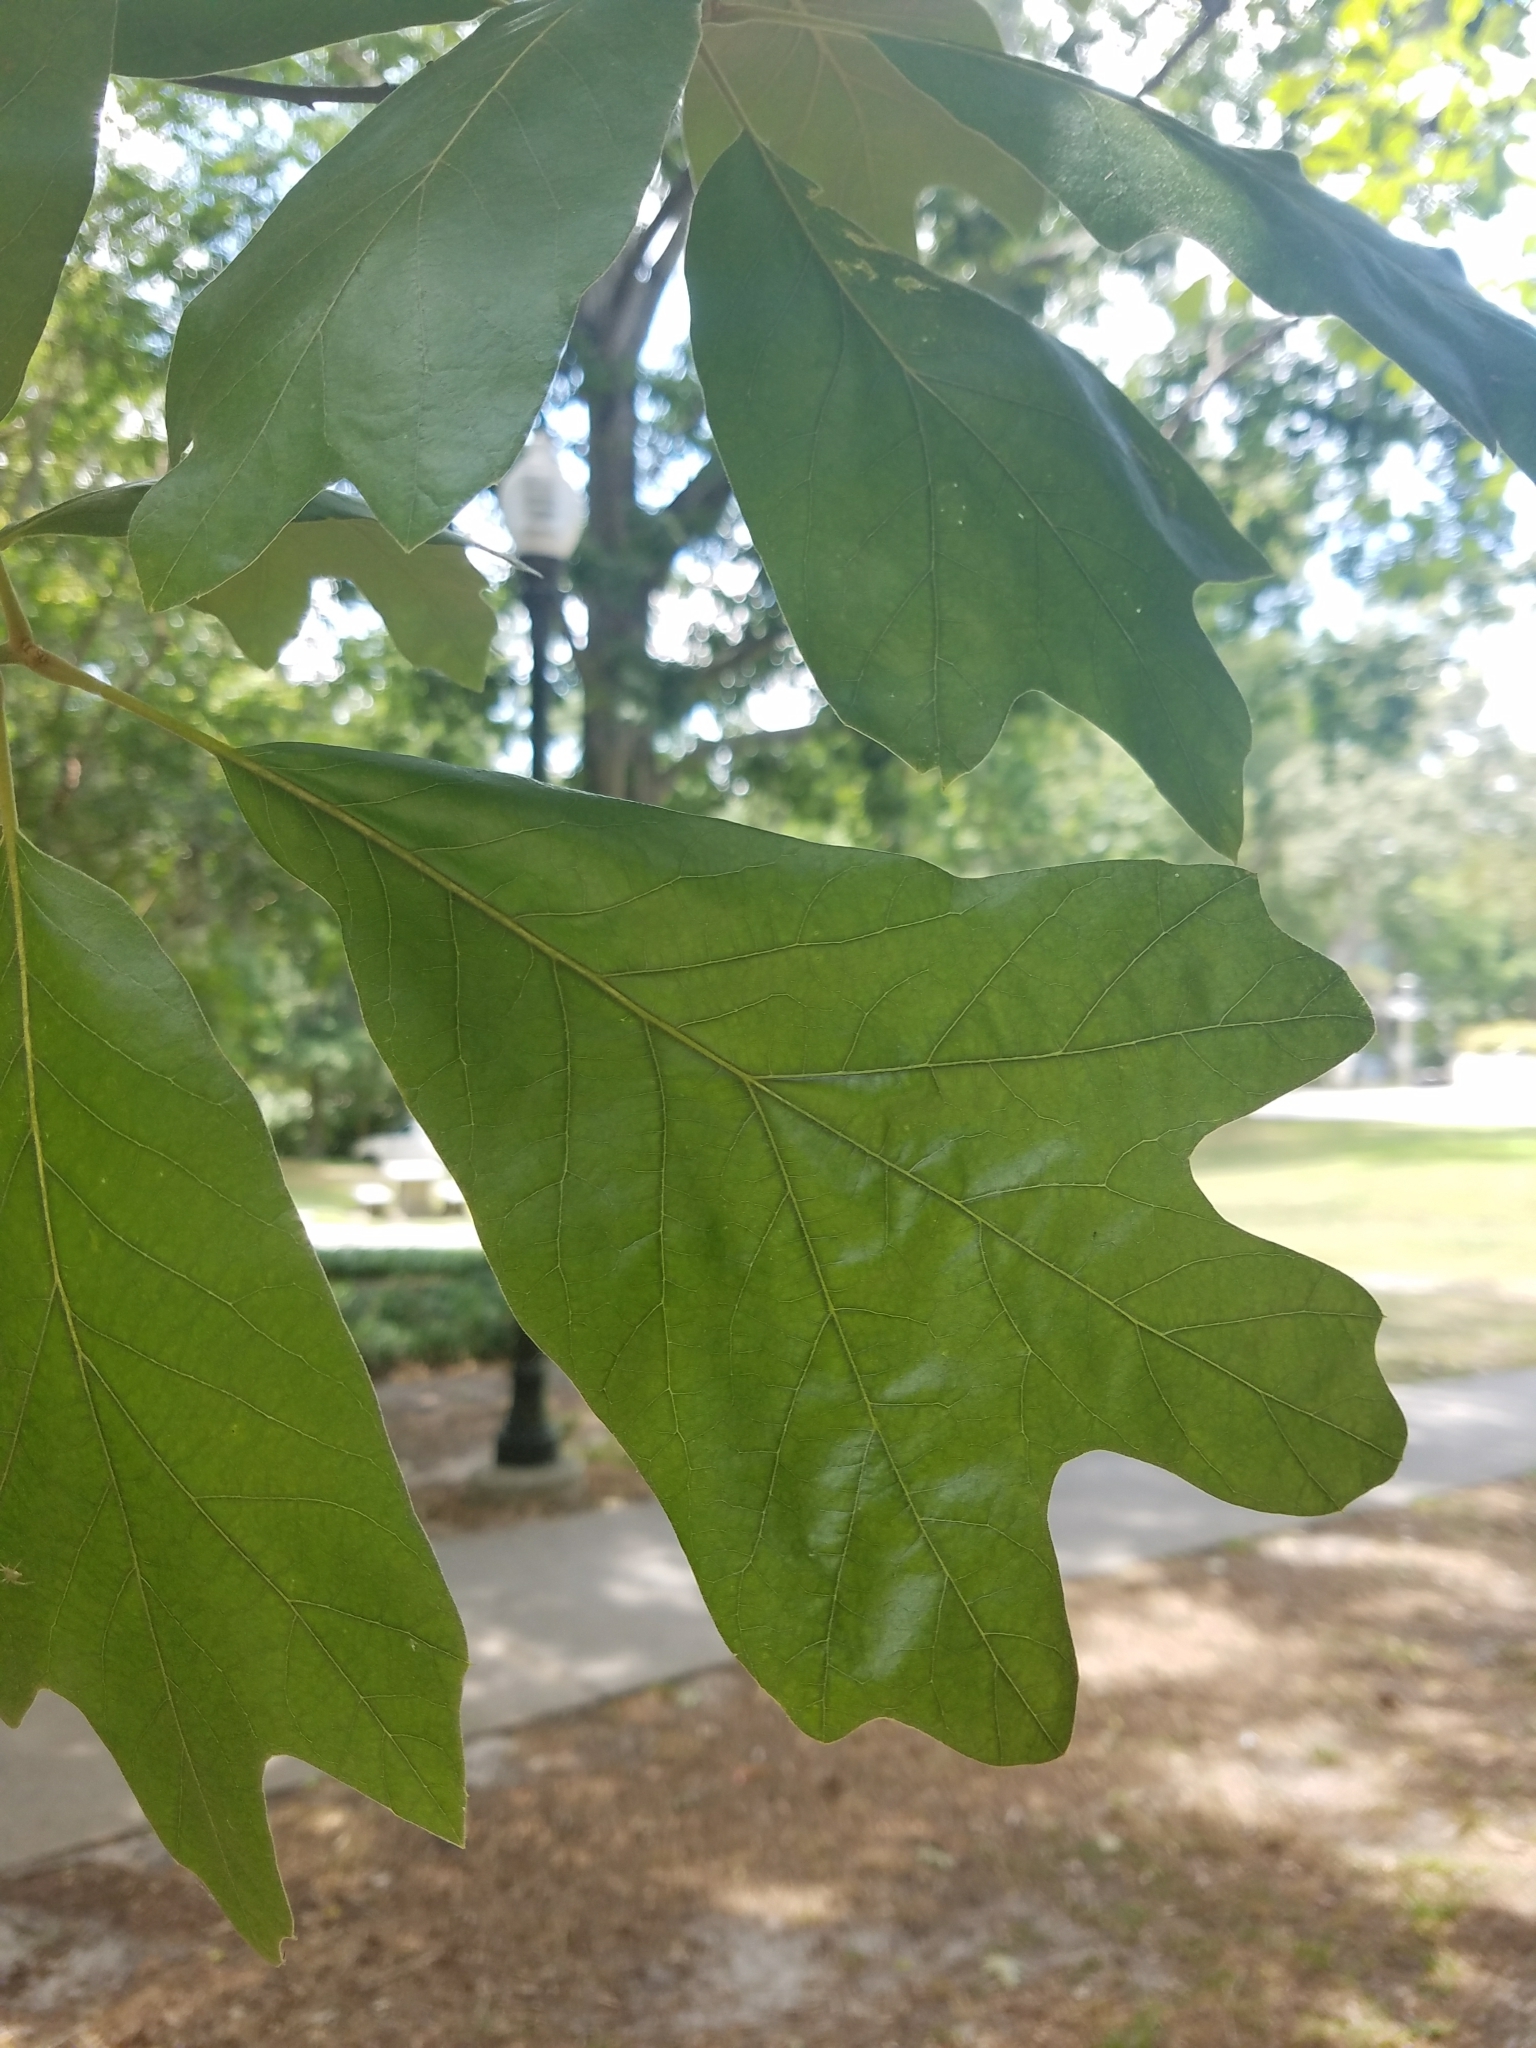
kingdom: Plantae
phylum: Tracheophyta
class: Magnoliopsida
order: Fagales
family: Fagaceae
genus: Quercus
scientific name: Quercus falcata
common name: Southern red oak
